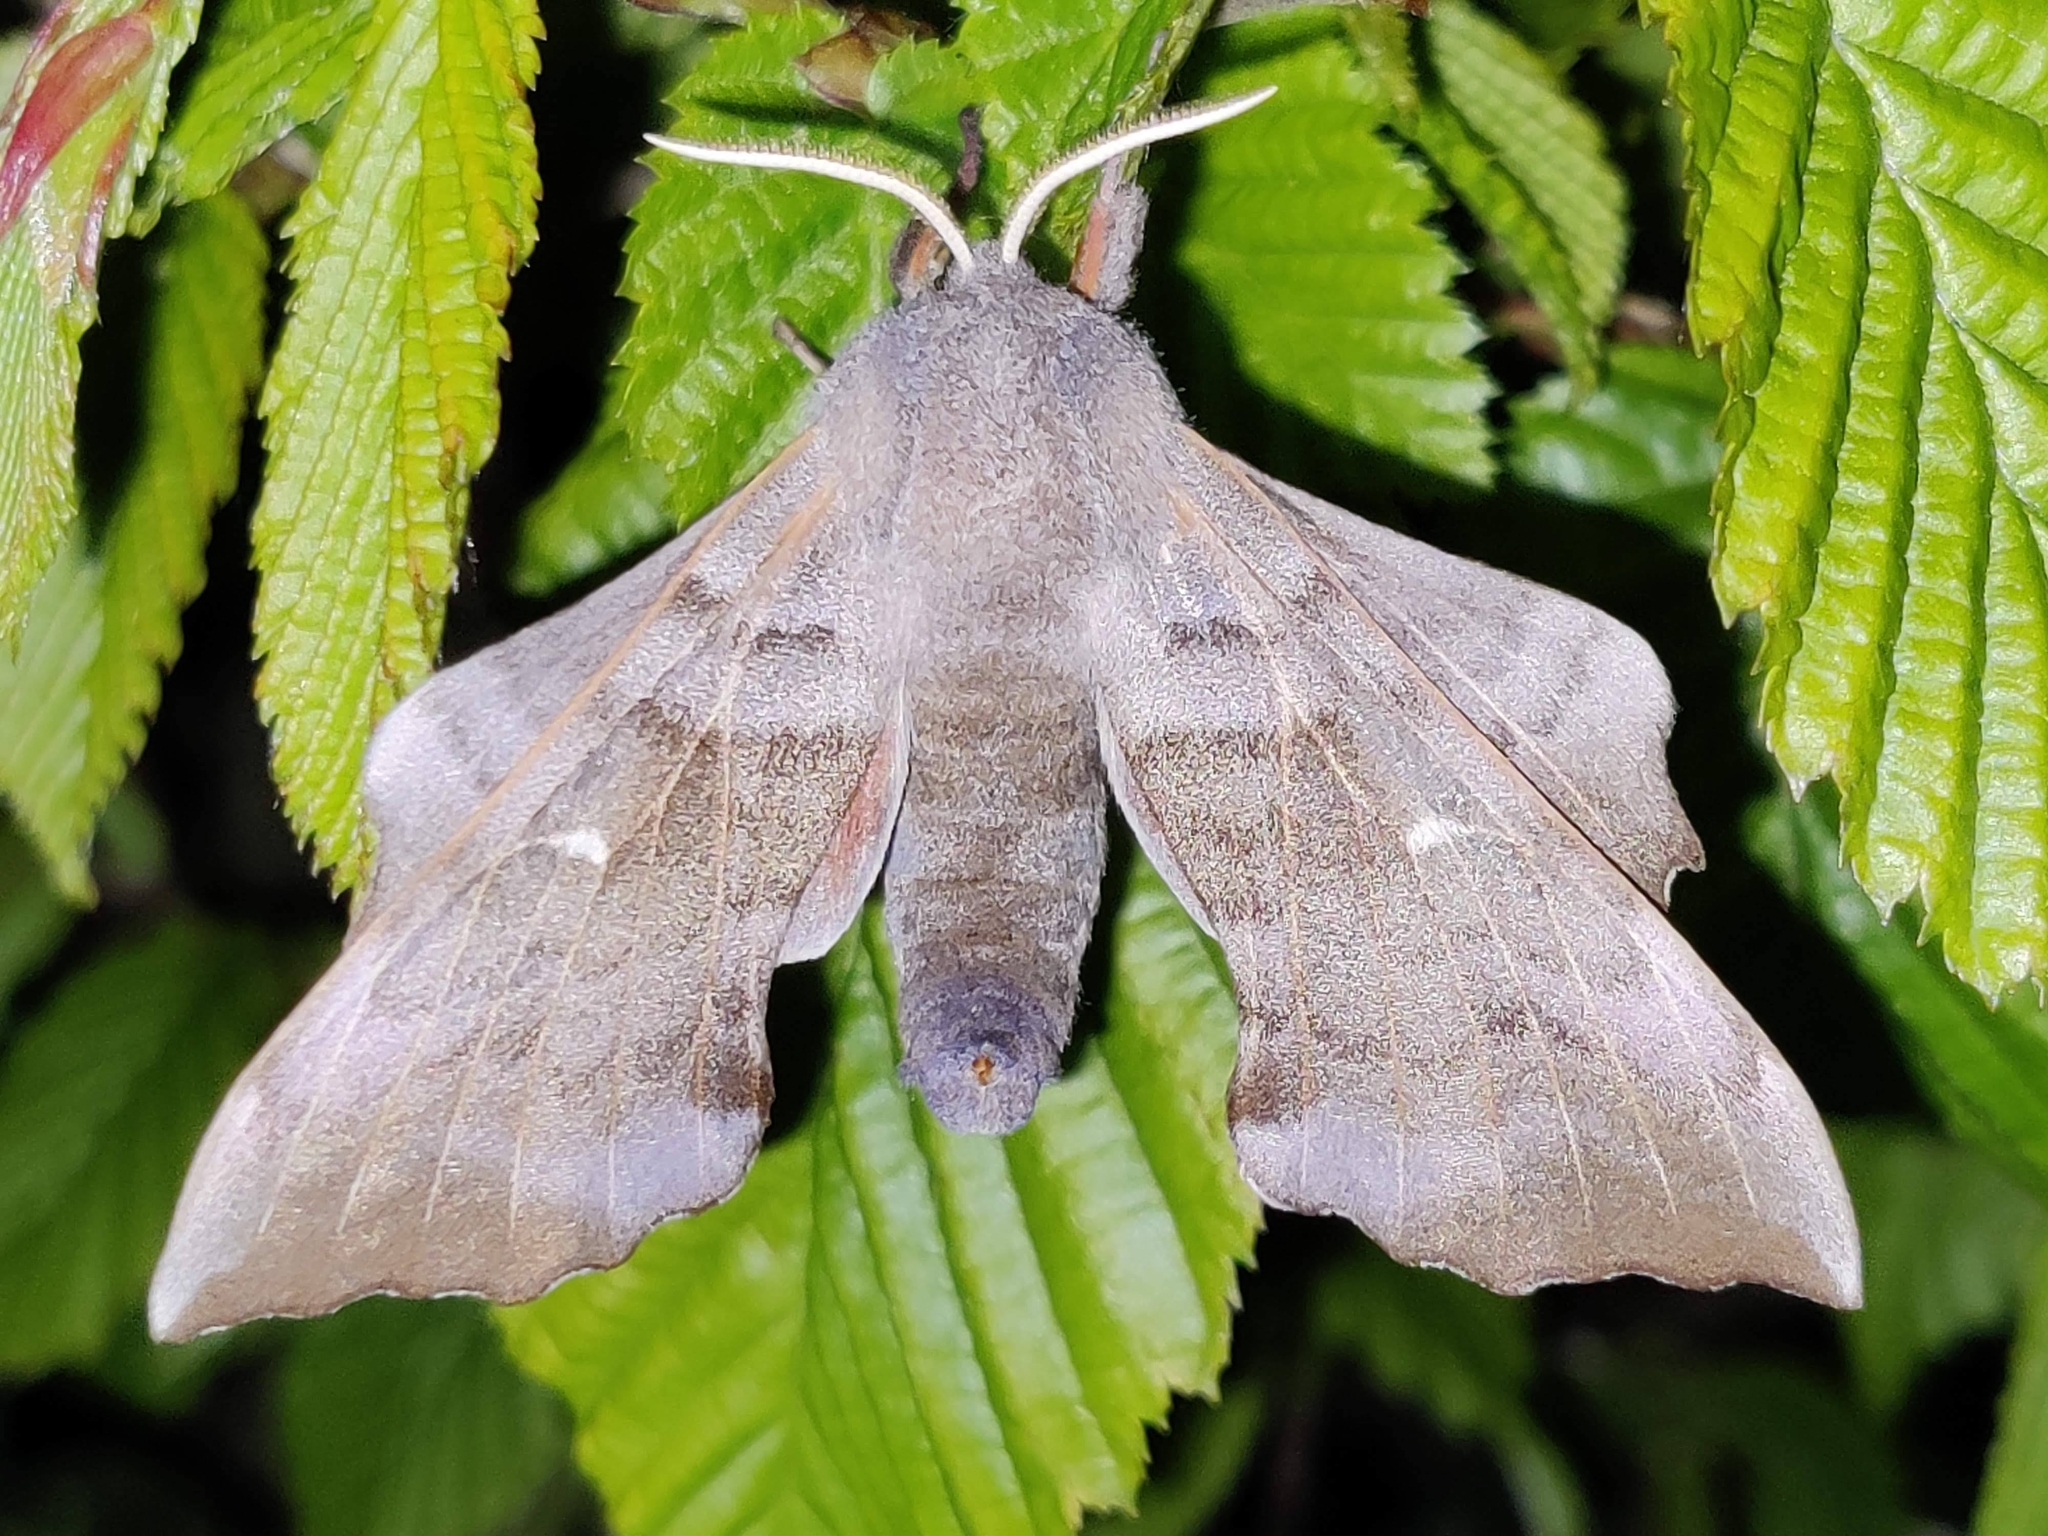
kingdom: Animalia
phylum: Arthropoda
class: Insecta
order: Lepidoptera
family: Sphingidae
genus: Laothoe
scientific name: Laothoe populi
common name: Poplar hawk-moth
